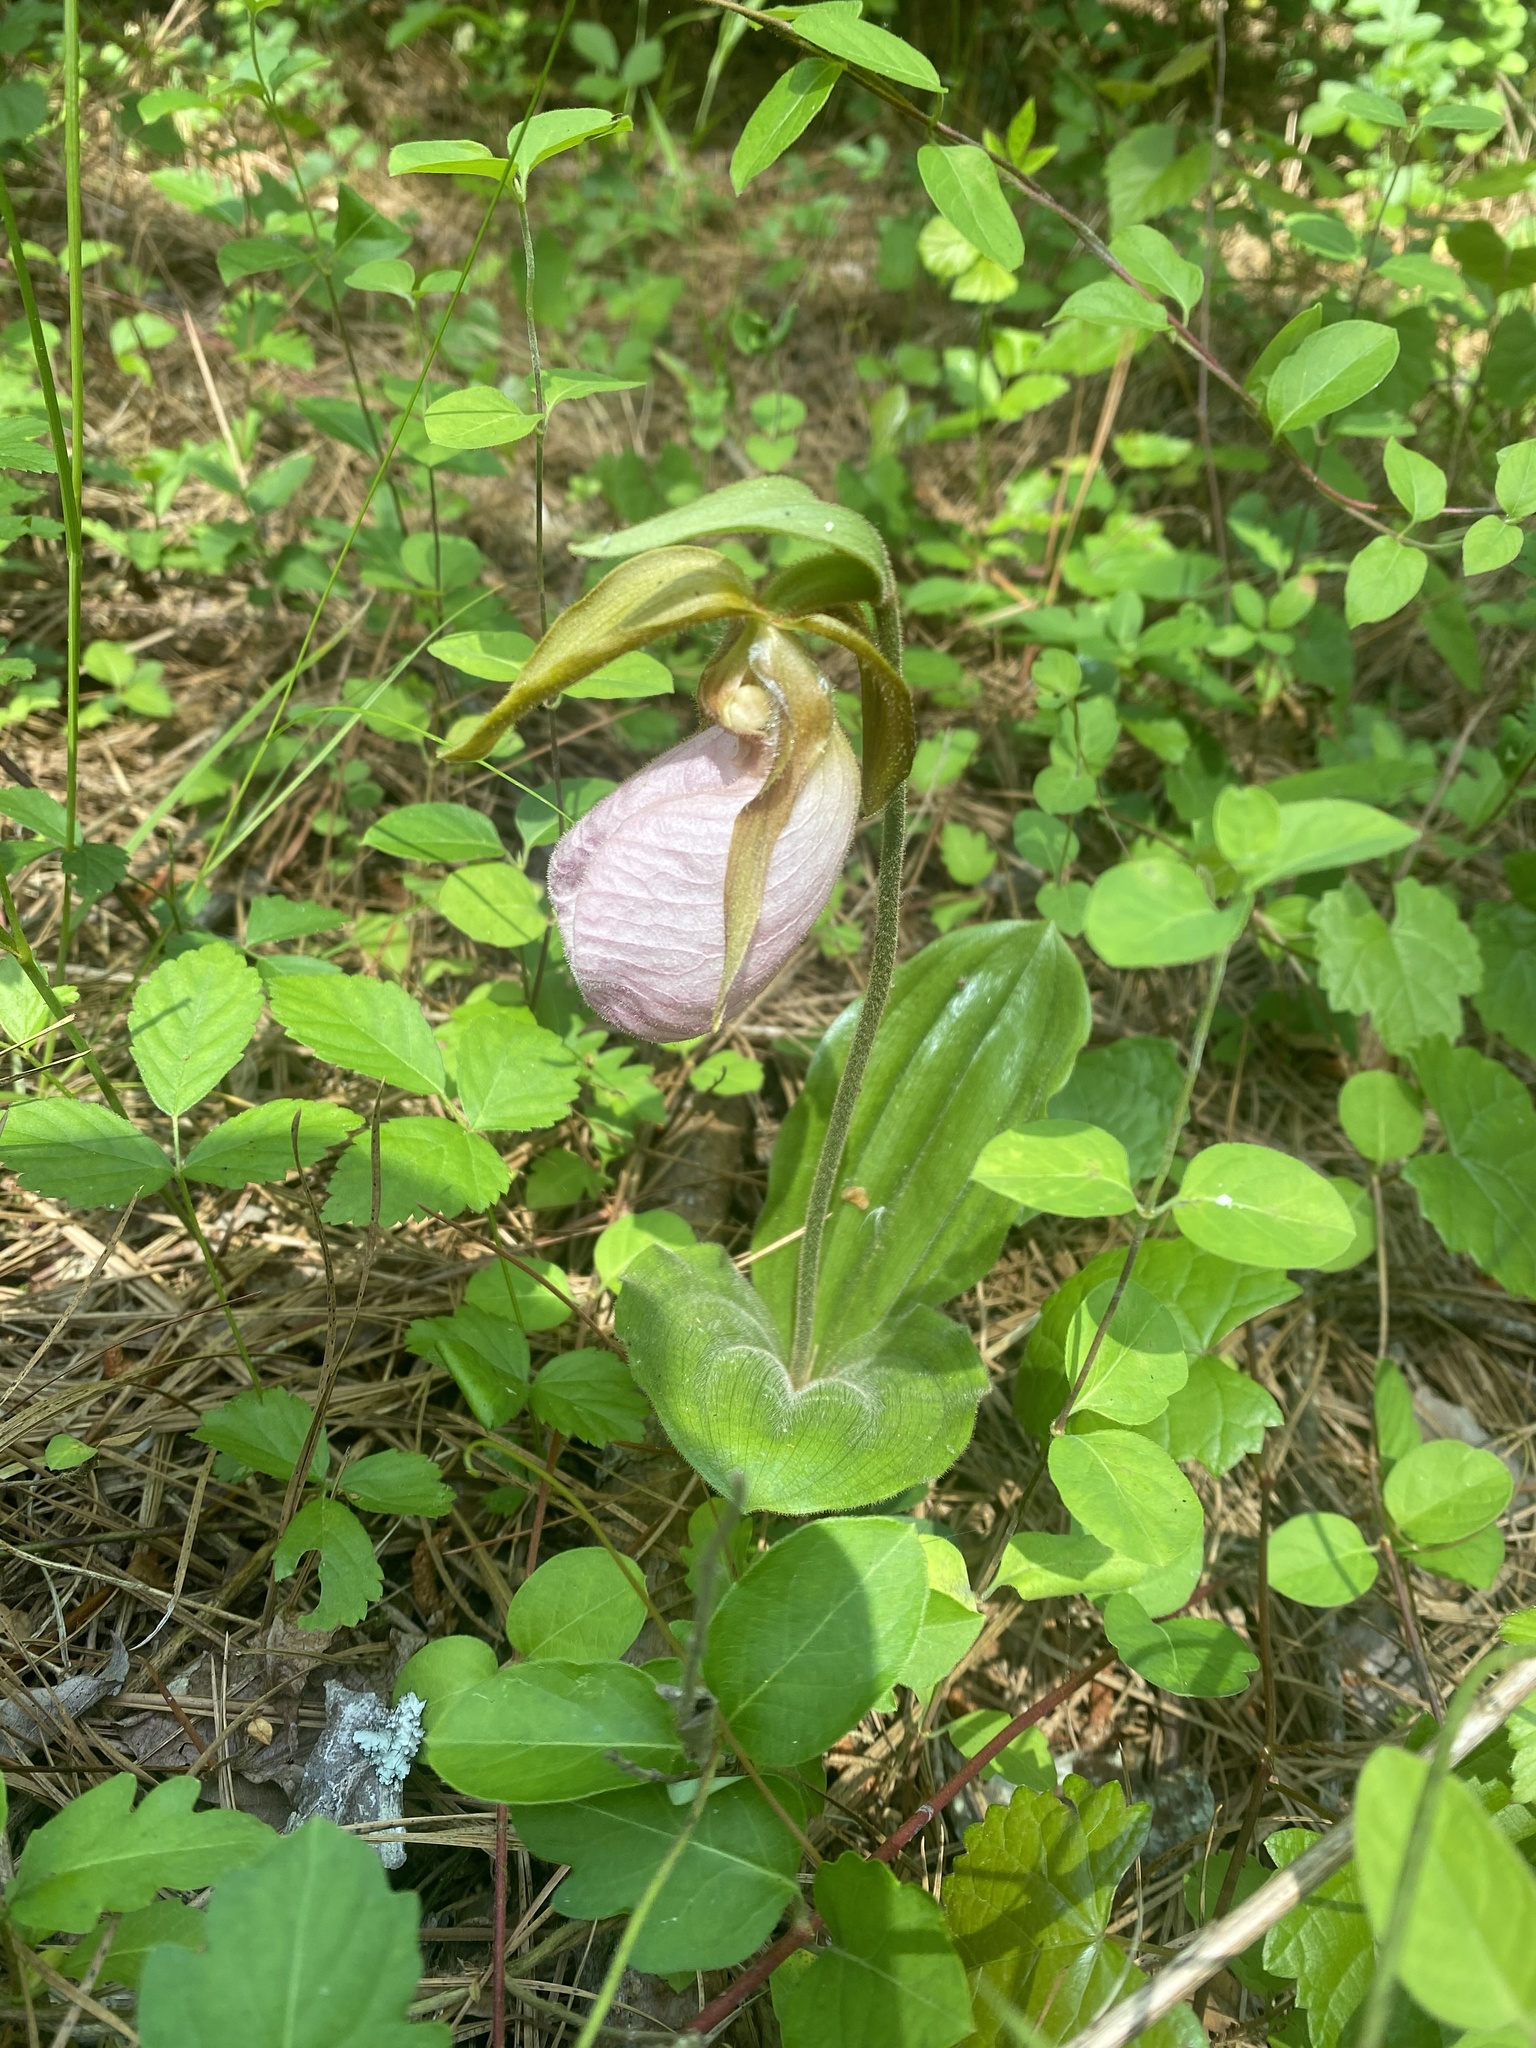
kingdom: Plantae
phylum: Tracheophyta
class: Liliopsida
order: Asparagales
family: Orchidaceae
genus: Cypripedium
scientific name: Cypripedium acaule
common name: Pink lady's-slipper
